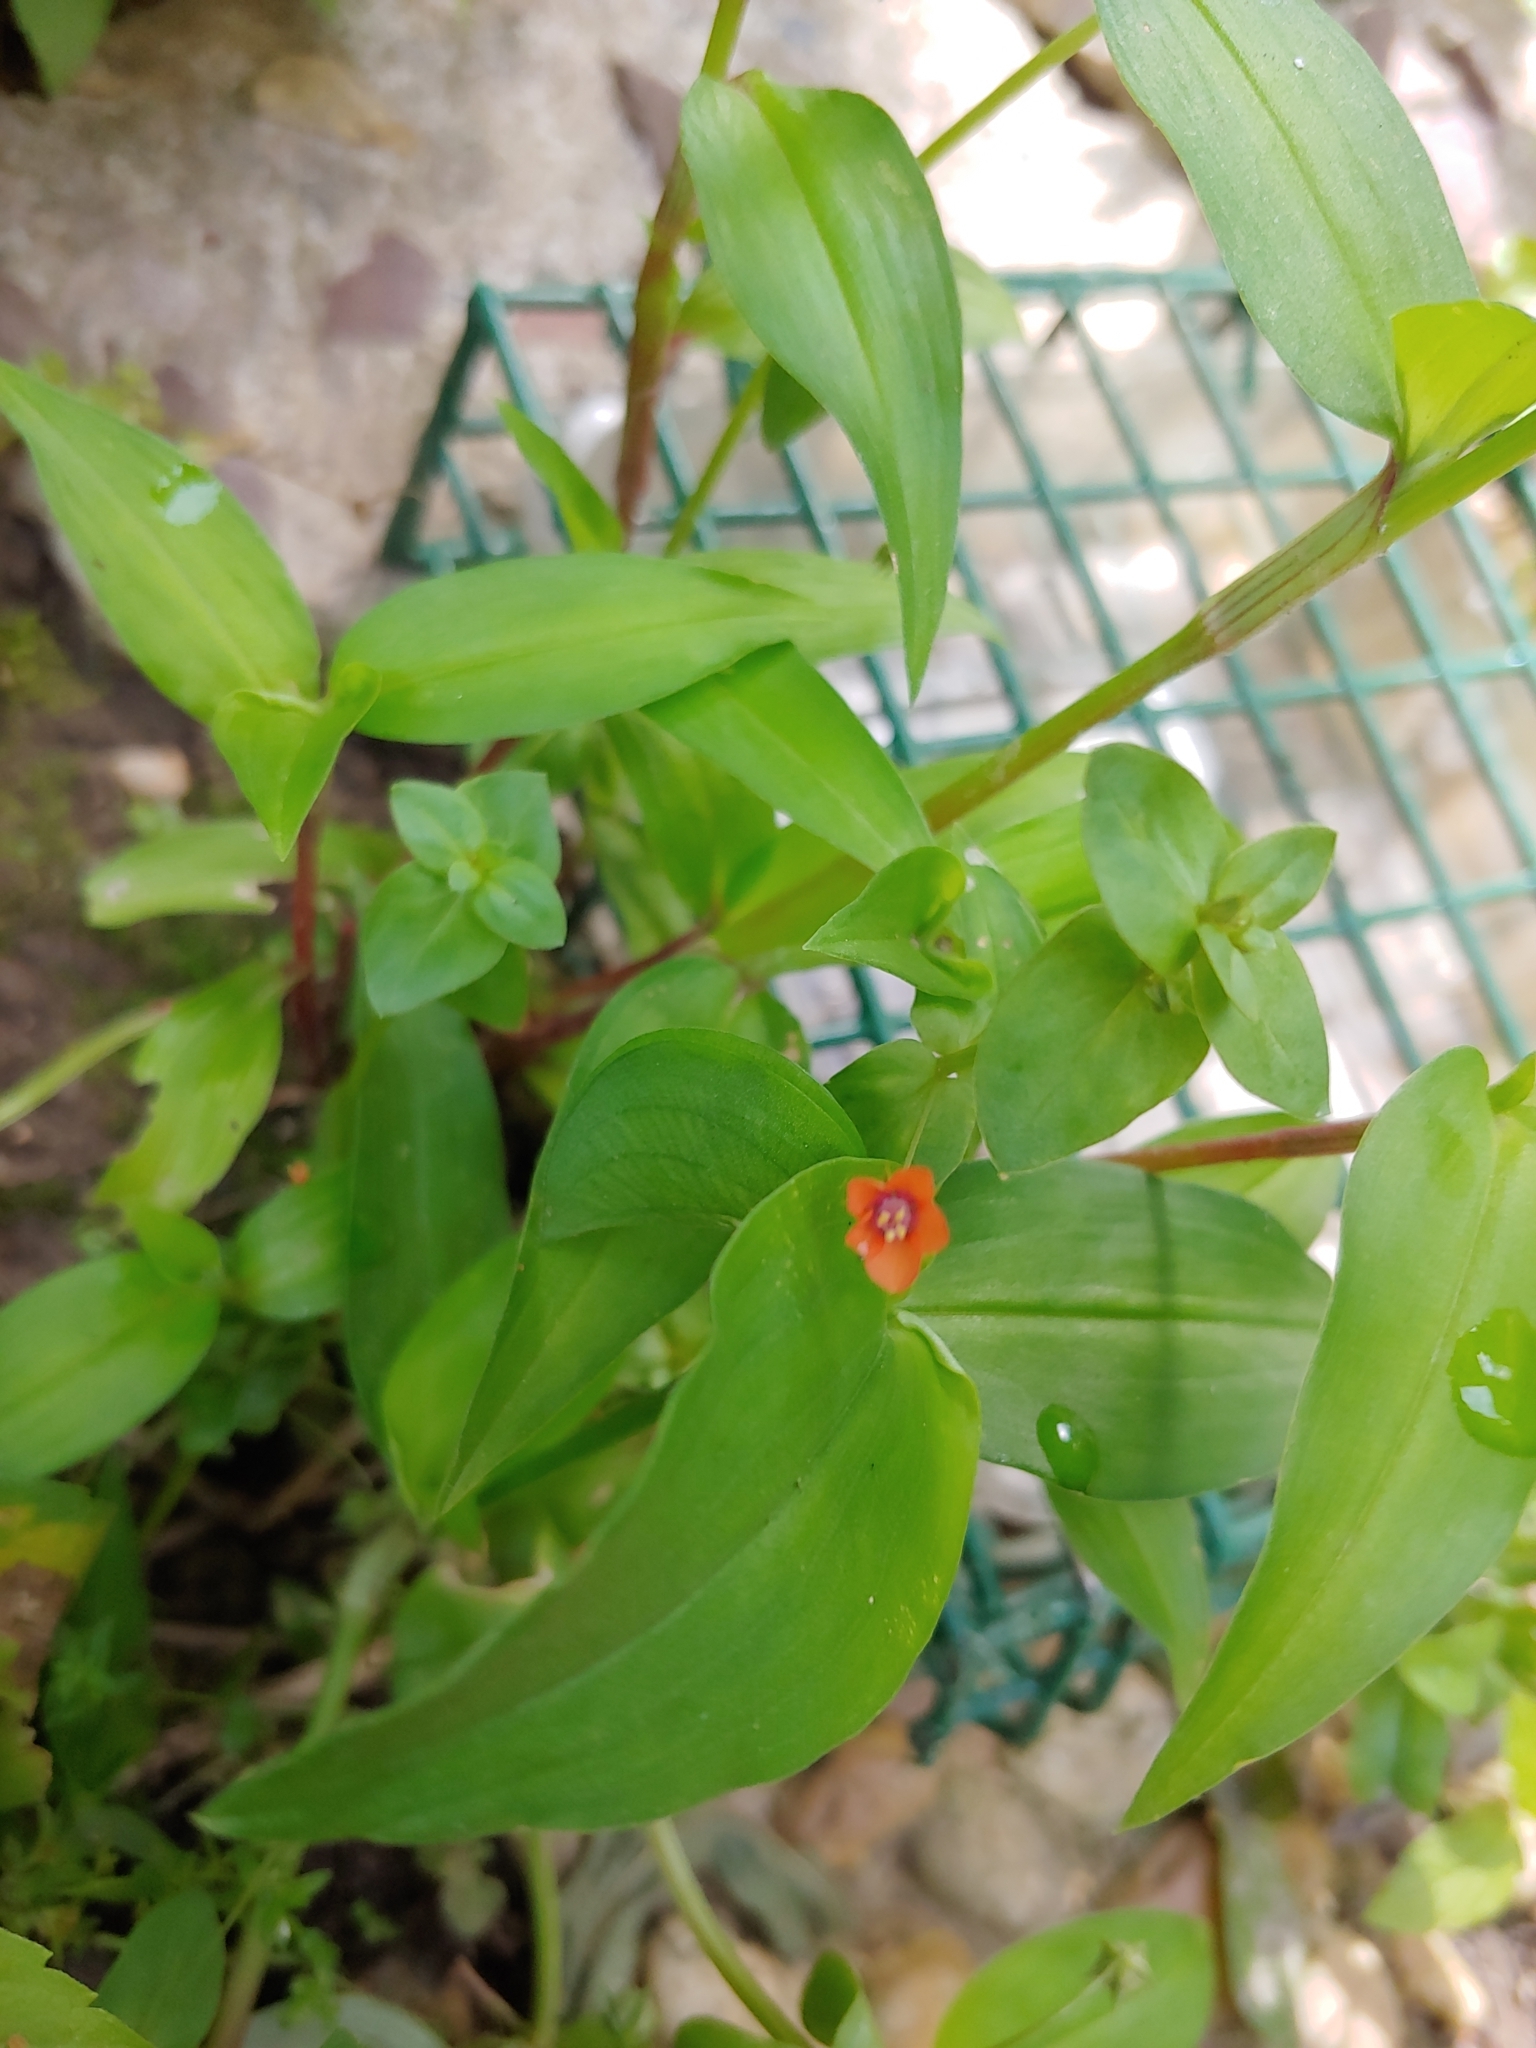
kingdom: Plantae
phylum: Tracheophyta
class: Magnoliopsida
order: Ericales
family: Primulaceae
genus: Lysimachia
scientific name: Lysimachia arvensis
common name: Scarlet pimpernel
